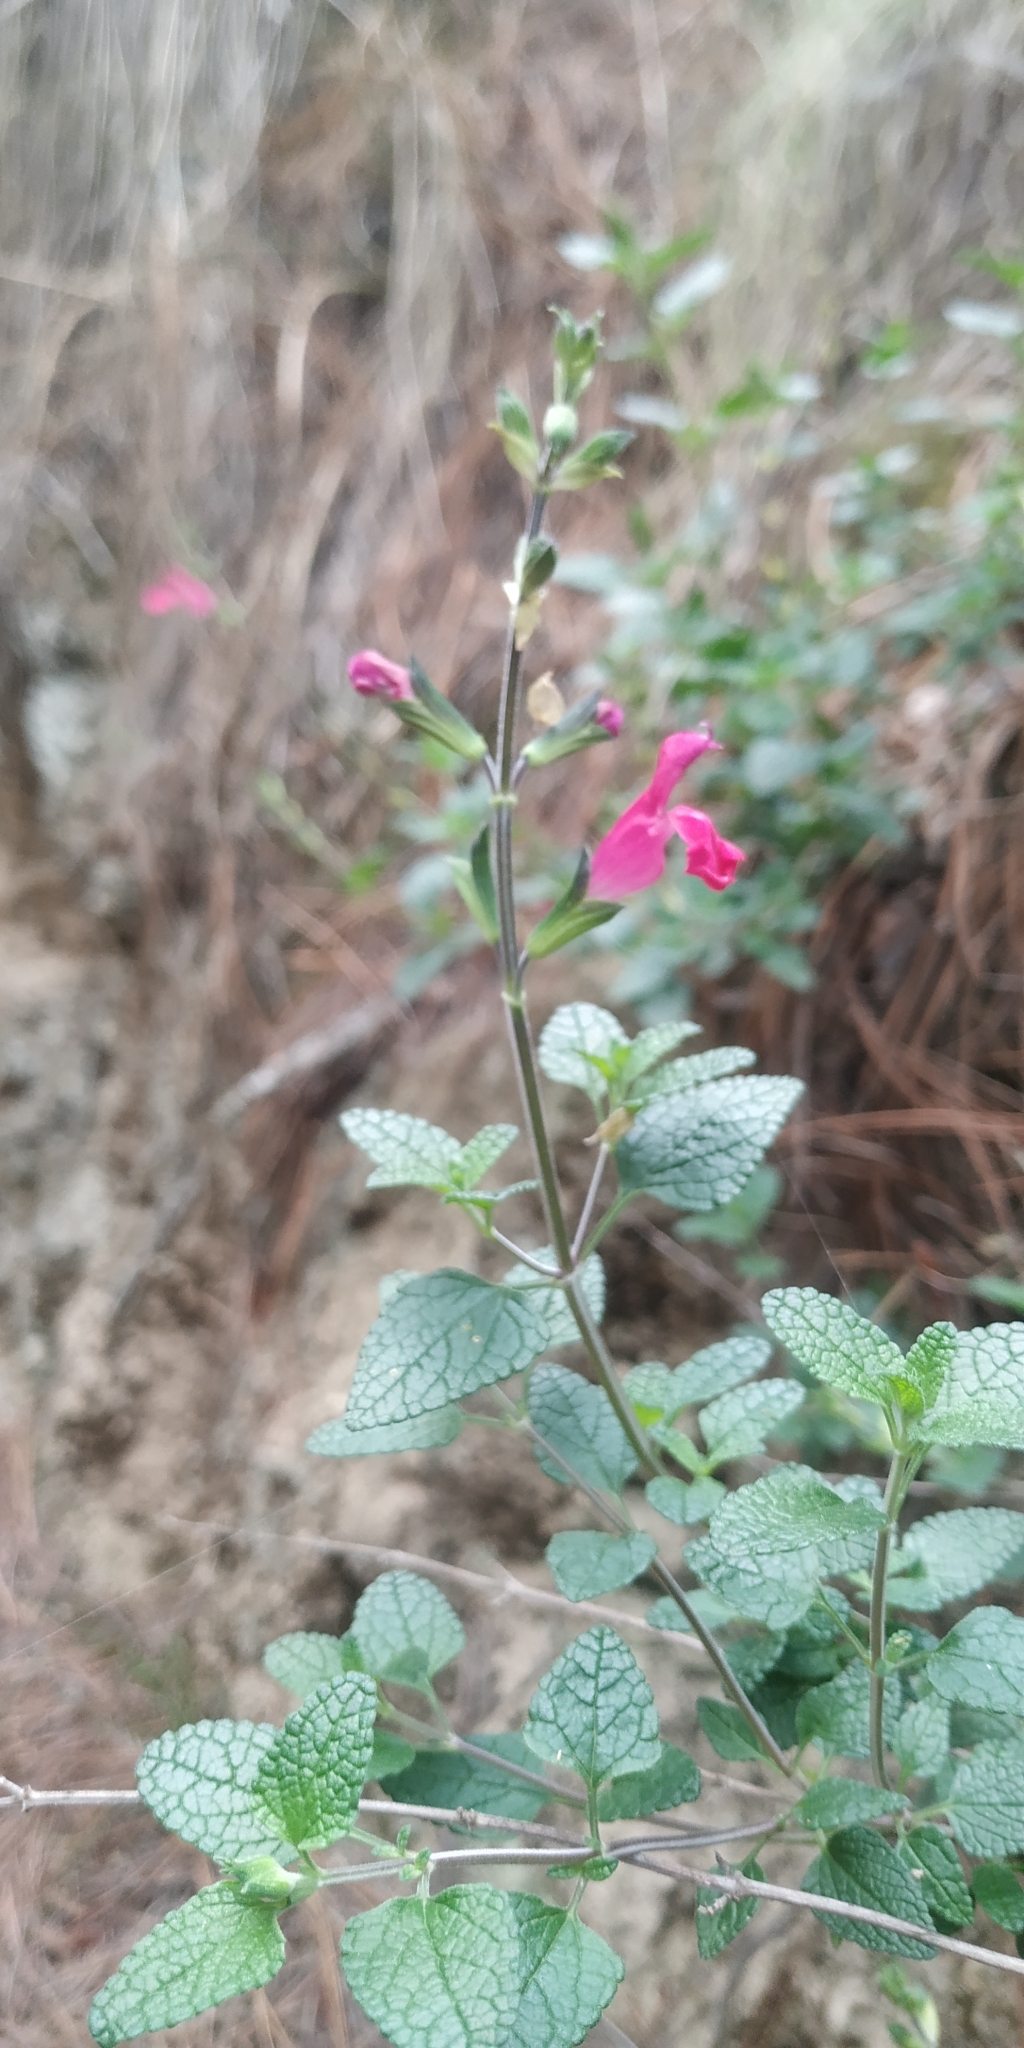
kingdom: Plantae
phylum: Tracheophyta
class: Magnoliopsida
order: Lamiales
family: Lamiaceae
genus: Salvia
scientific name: Salvia microphylla
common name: Baby sage
